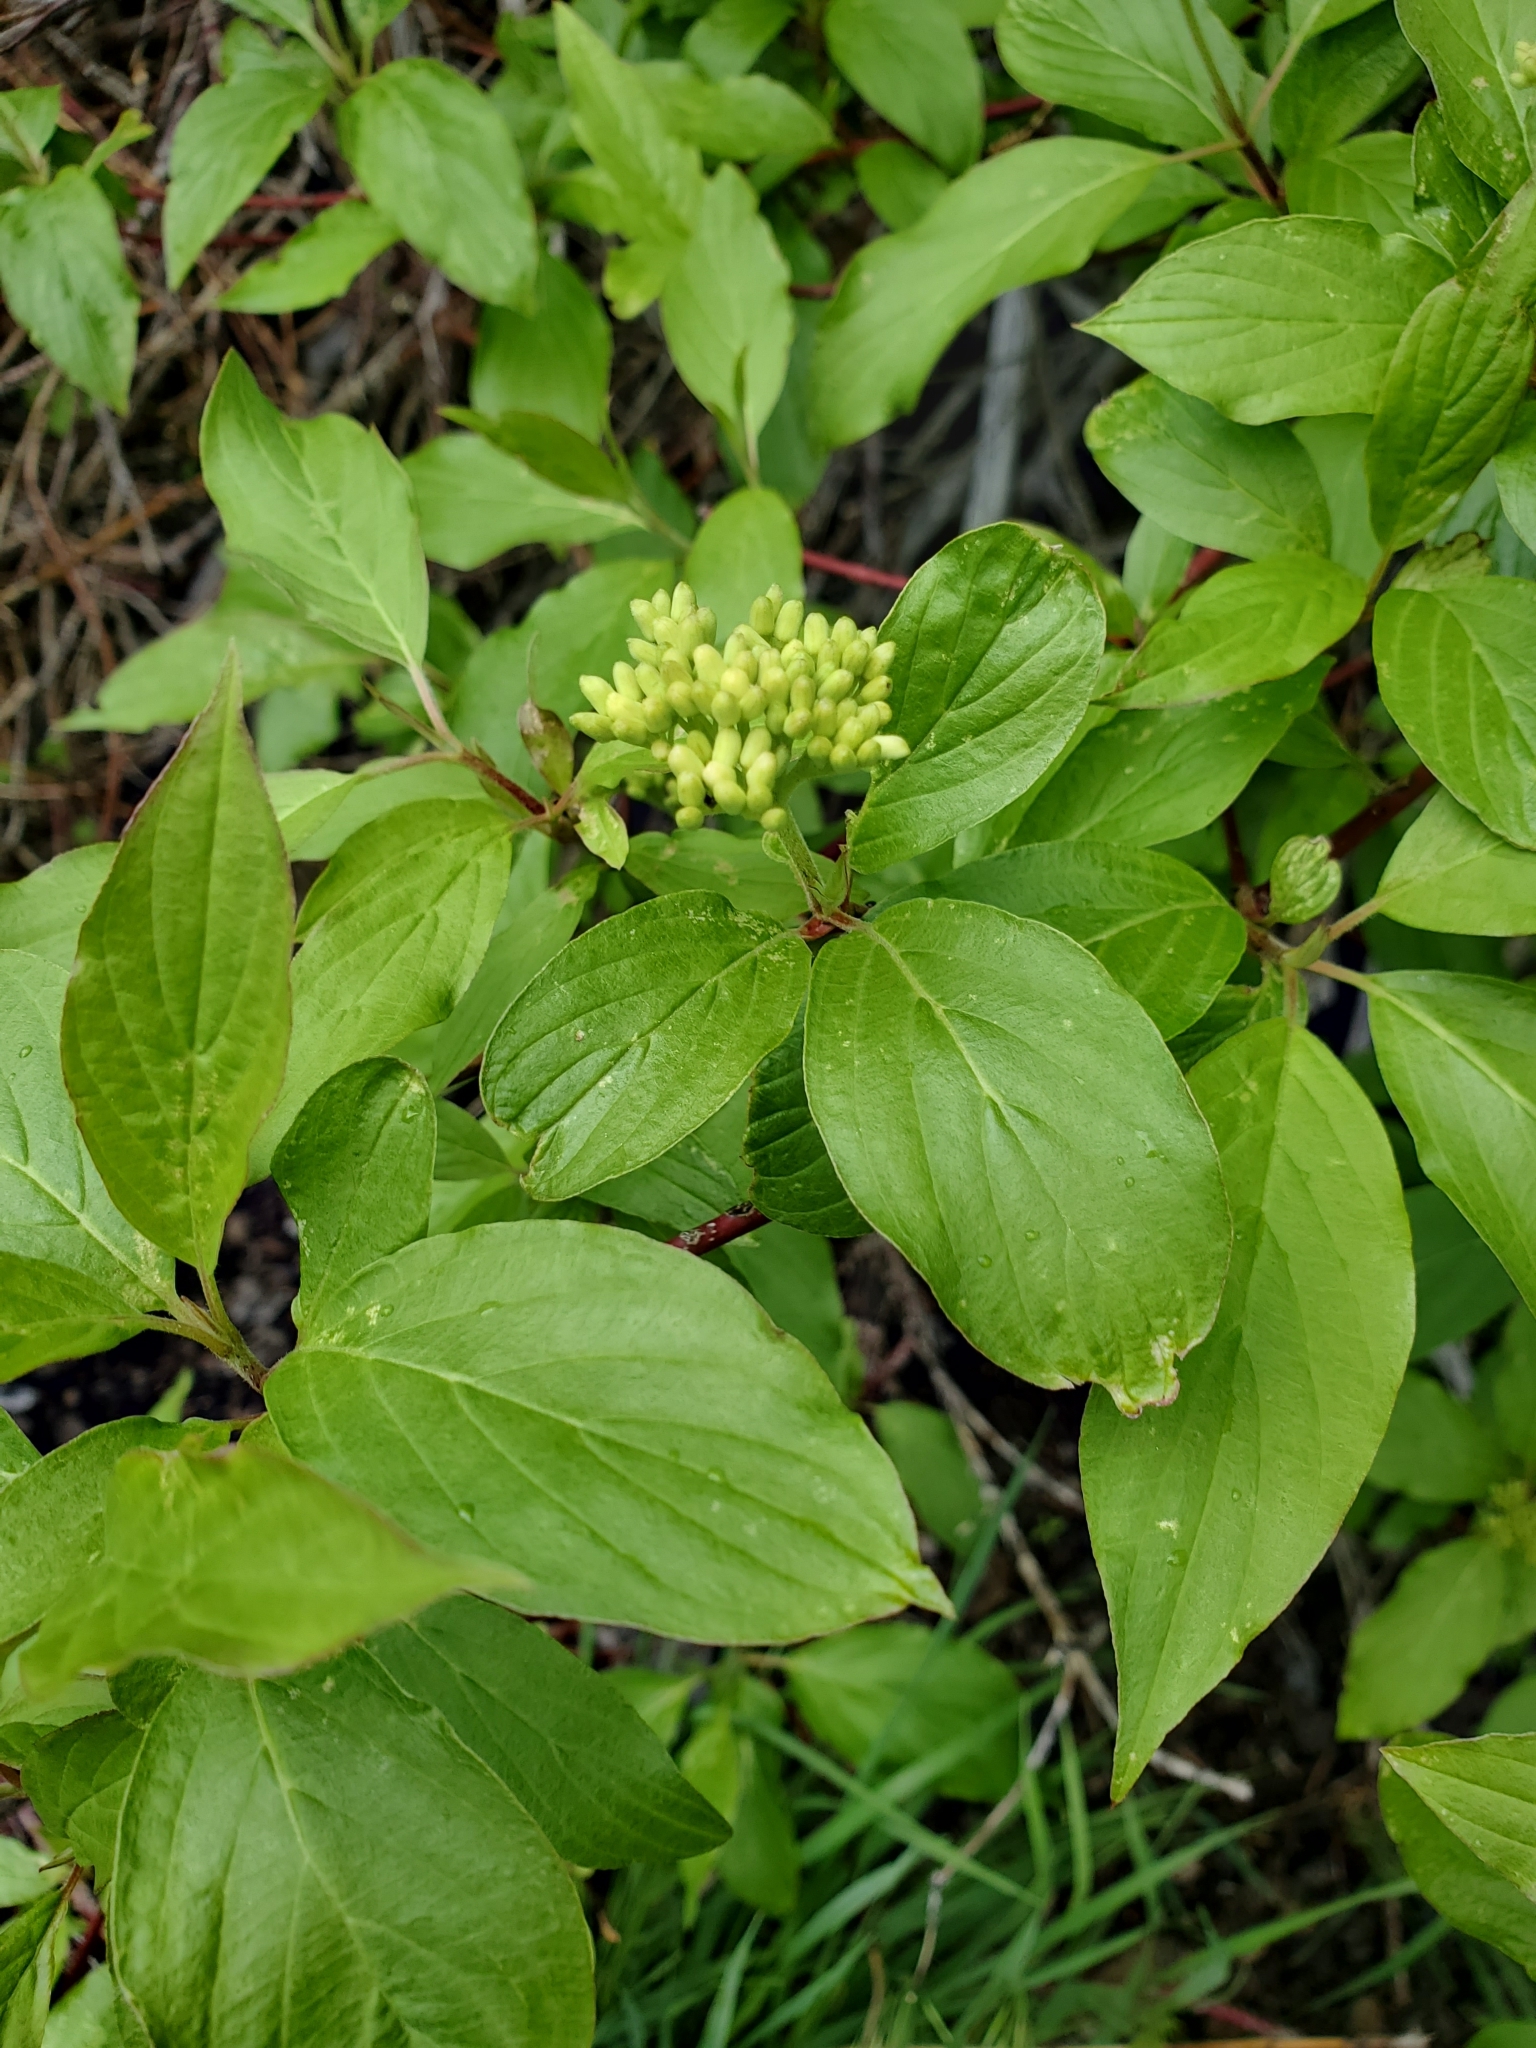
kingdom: Plantae
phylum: Tracheophyta
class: Magnoliopsida
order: Cornales
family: Cornaceae
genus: Cornus
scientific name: Cornus sericea
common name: Red-osier dogwood
